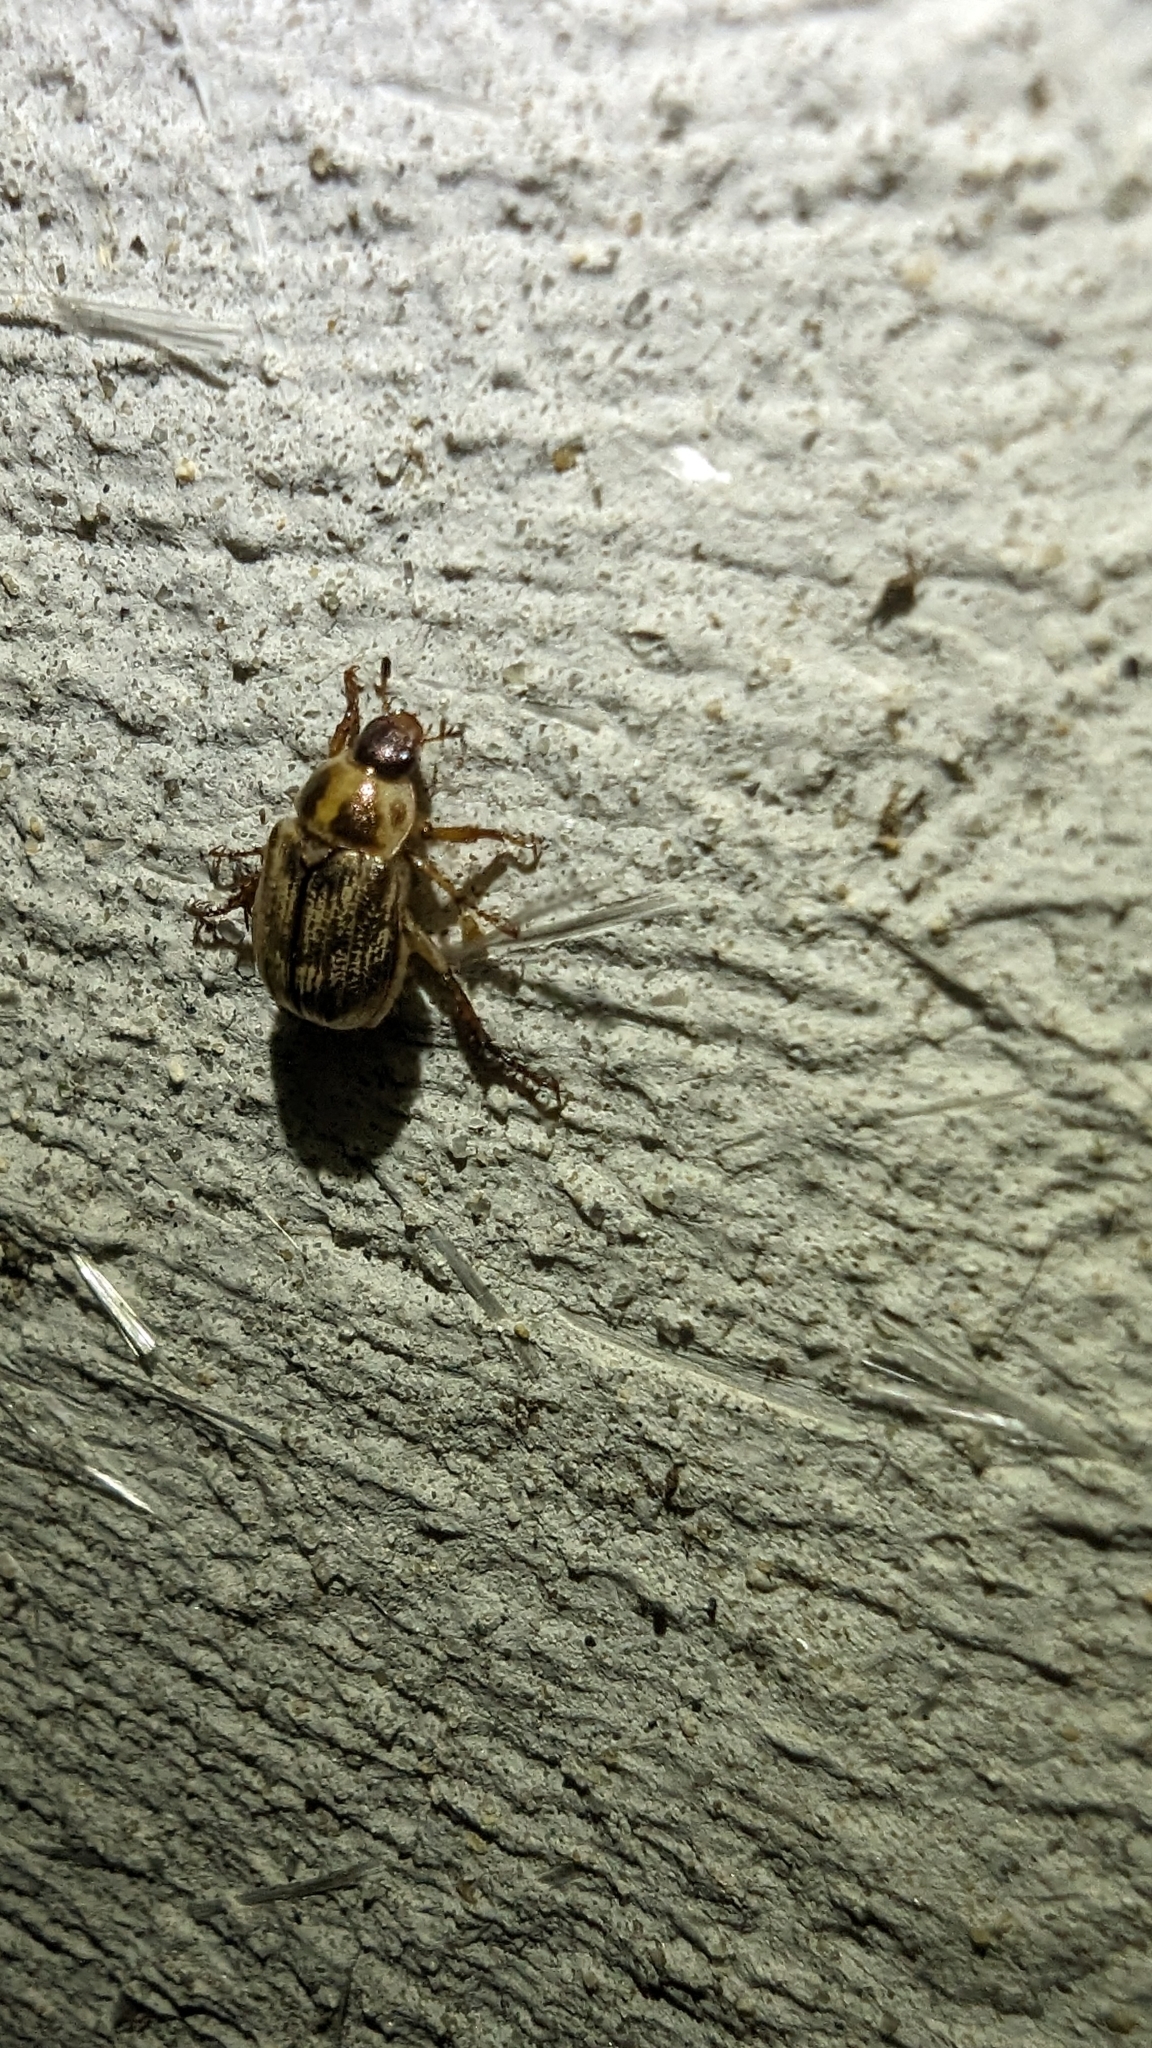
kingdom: Animalia
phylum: Arthropoda
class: Insecta
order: Coleoptera
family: Scarabaeidae
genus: Exomala
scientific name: Exomala orientalis
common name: Oriental beetle
